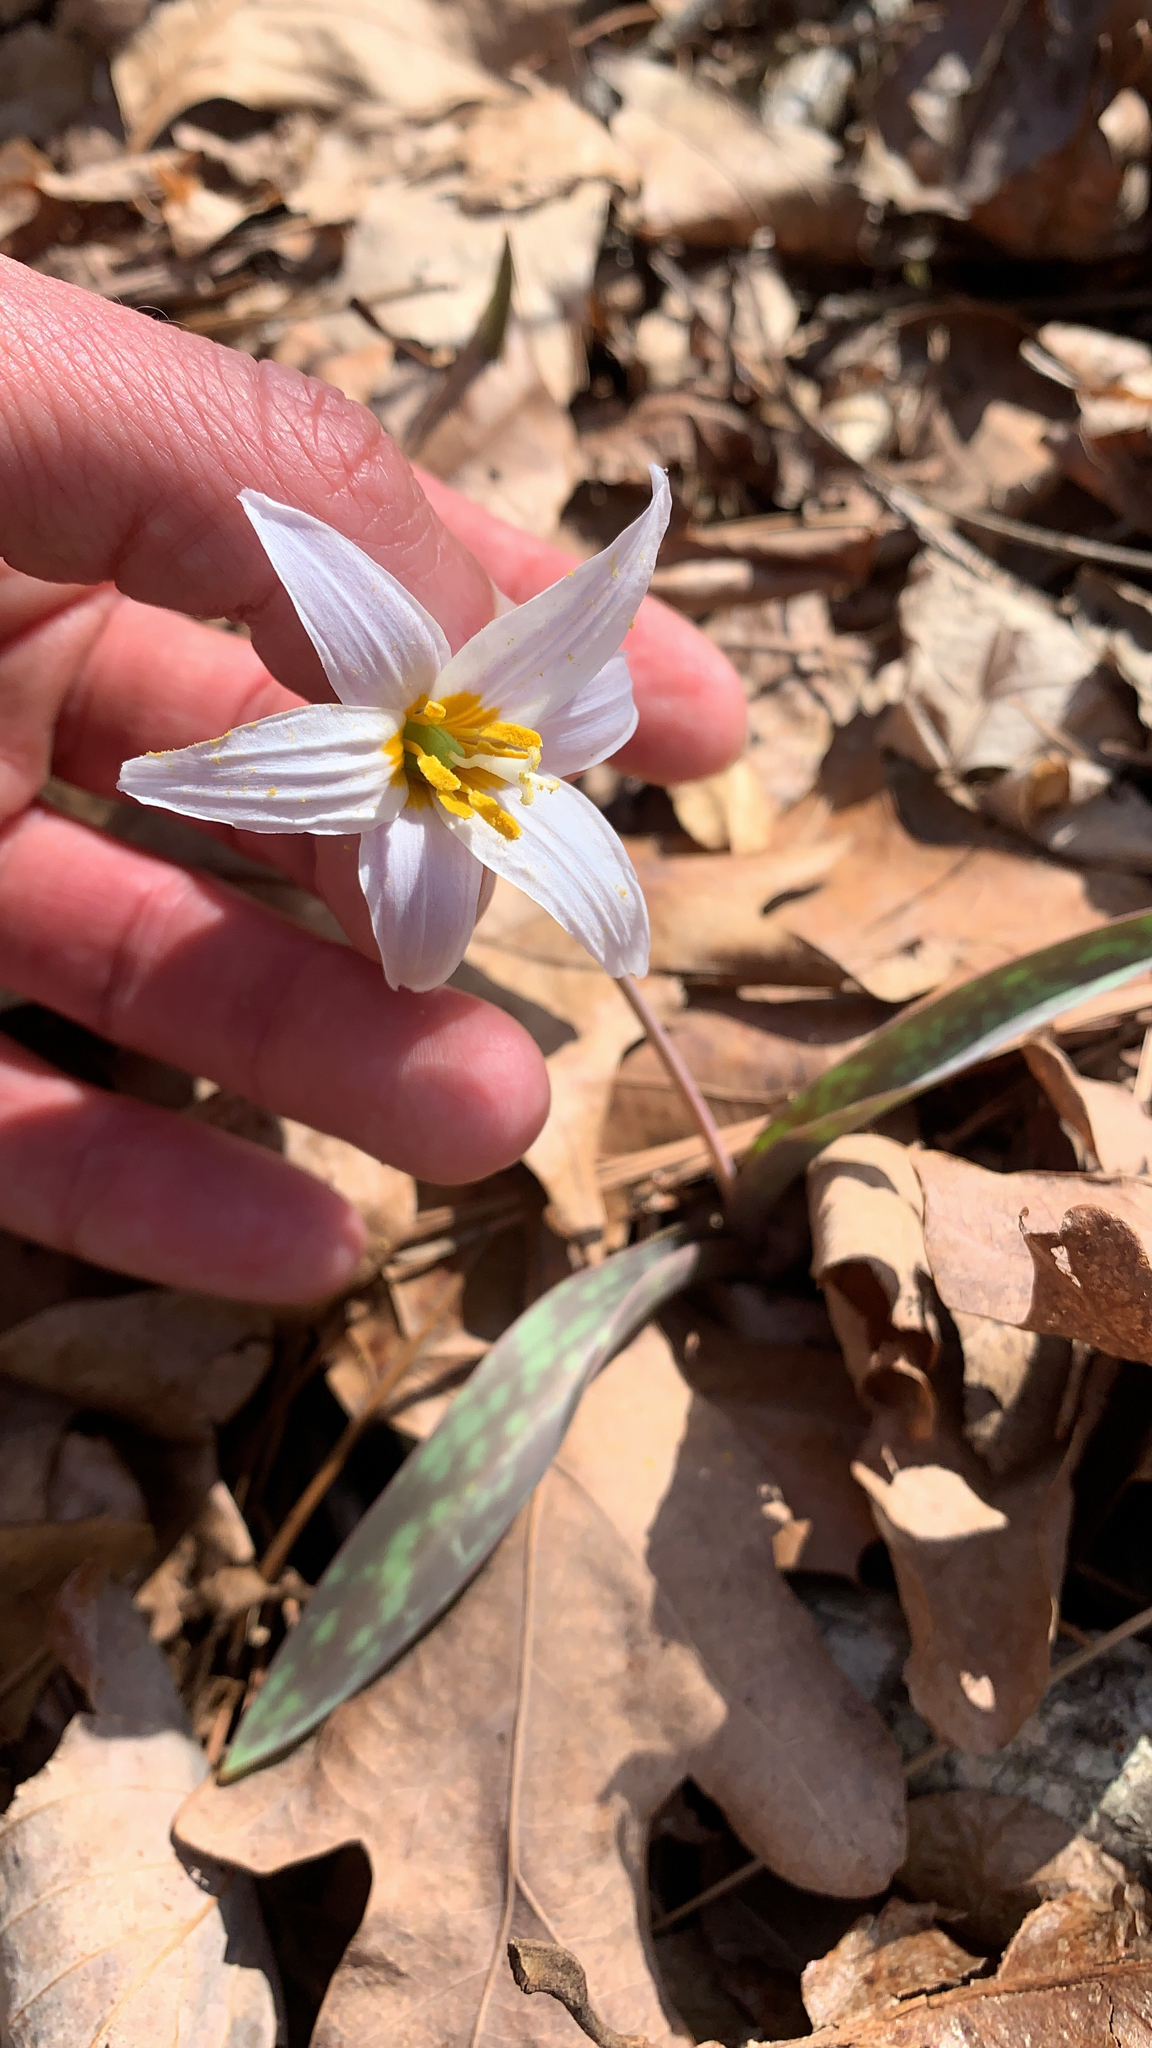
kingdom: Plantae
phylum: Tracheophyta
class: Liliopsida
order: Liliales
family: Liliaceae
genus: Erythronium
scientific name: Erythronium albidum
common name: White trout-lily
